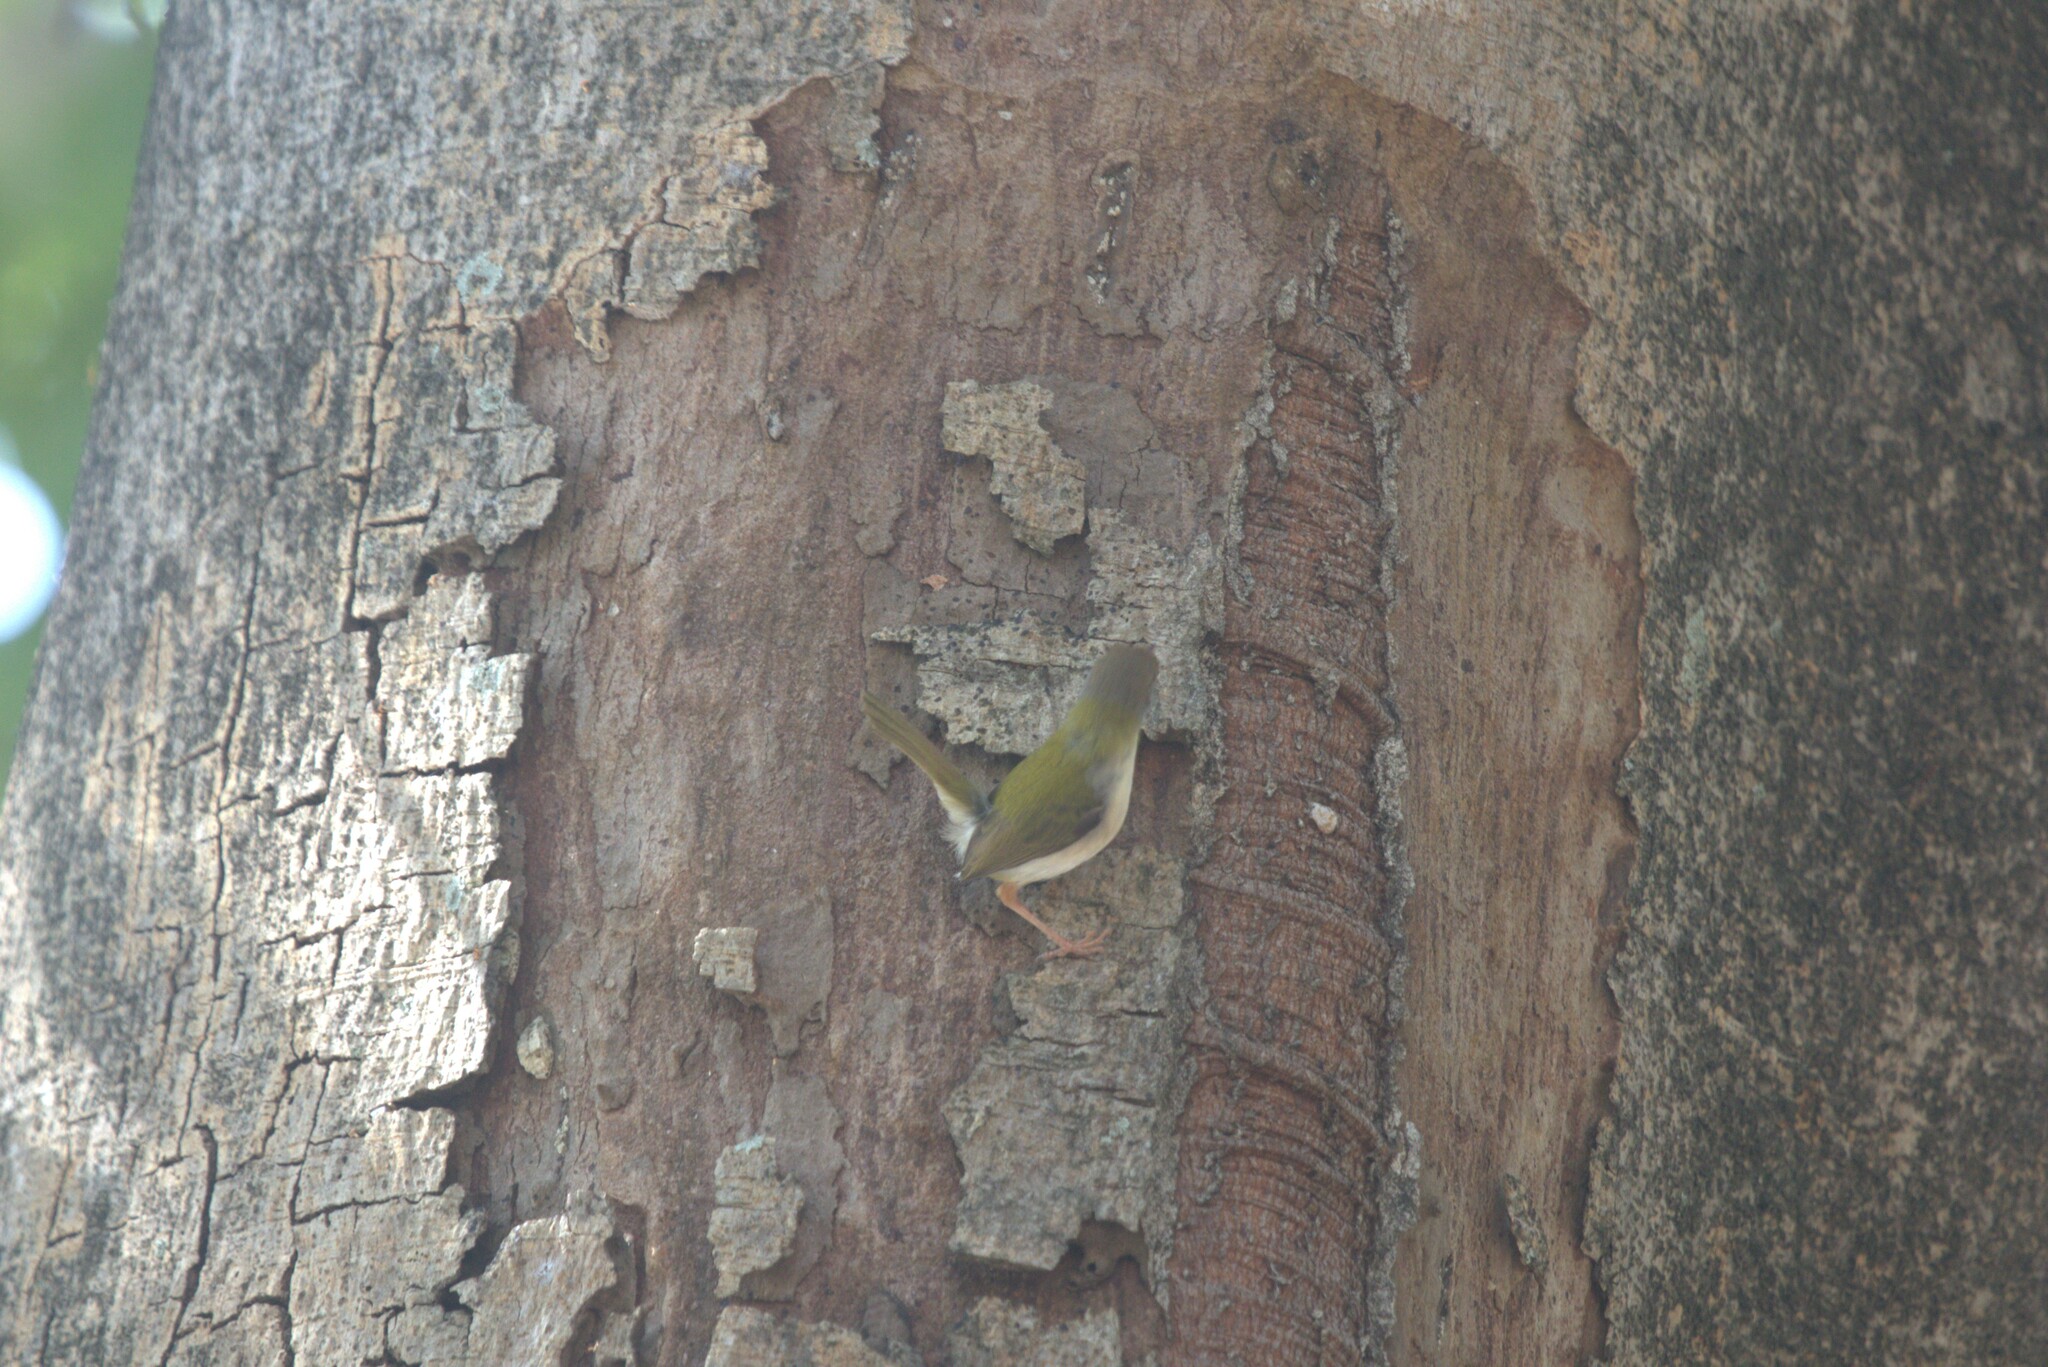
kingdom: Animalia
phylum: Chordata
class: Aves
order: Passeriformes
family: Cisticolidae
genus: Orthotomus
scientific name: Orthotomus sutorius
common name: Common tailorbird
